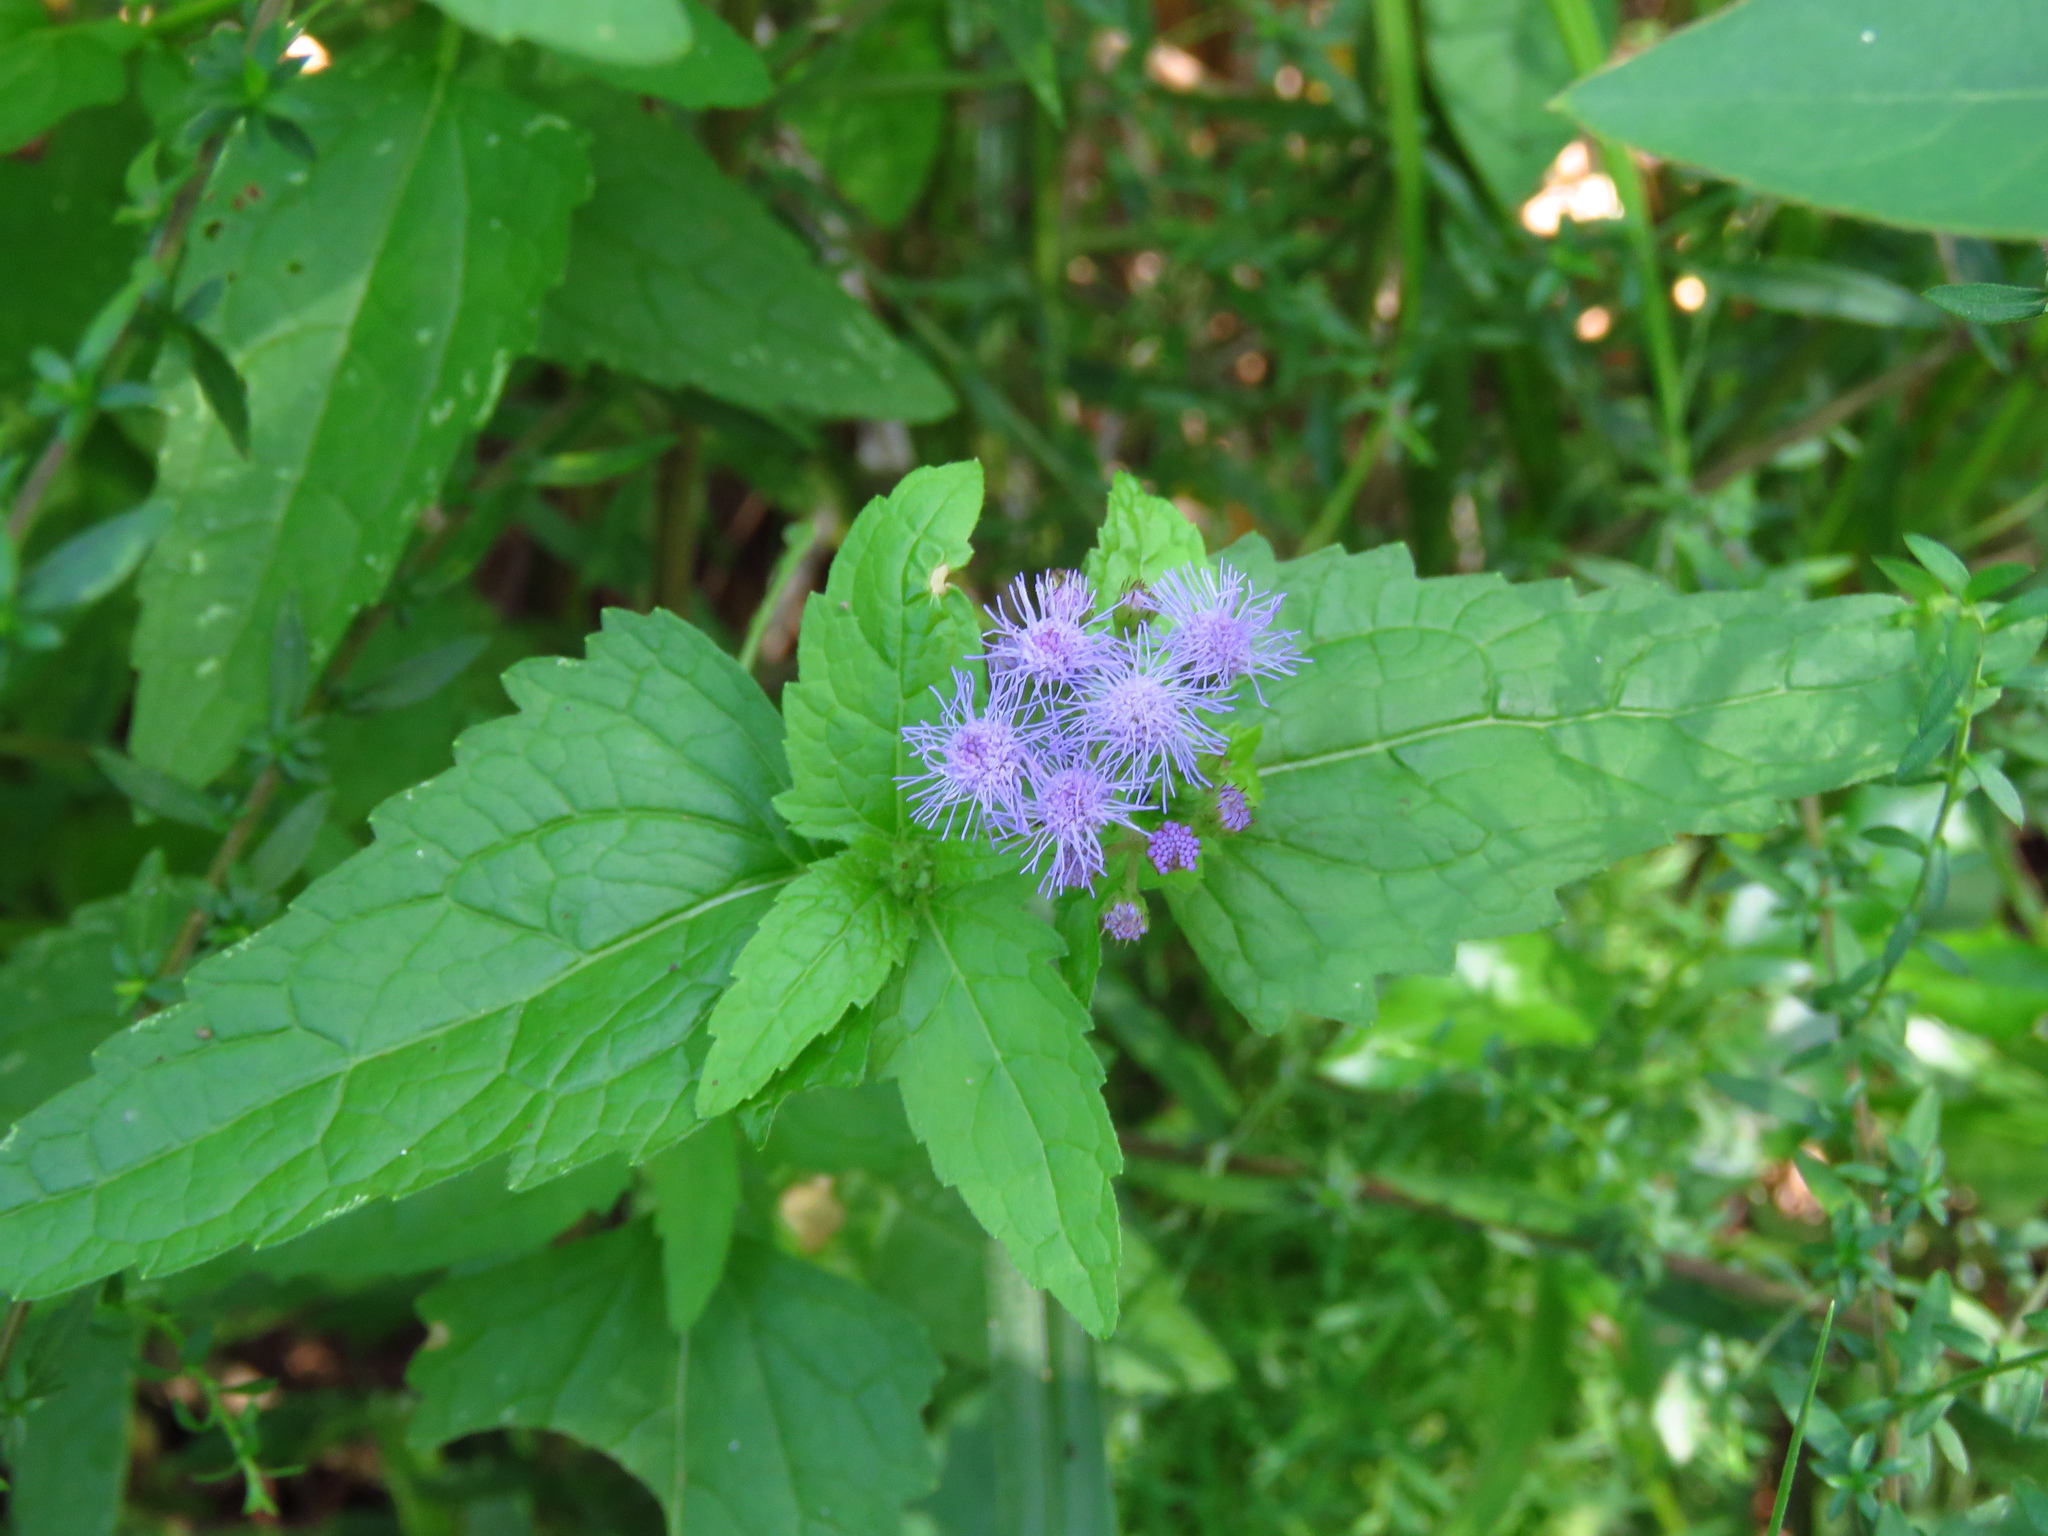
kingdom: Plantae
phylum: Tracheophyta
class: Magnoliopsida
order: Asterales
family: Asteraceae
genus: Conoclinium
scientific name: Conoclinium coelestinum
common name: Blue mistflower
